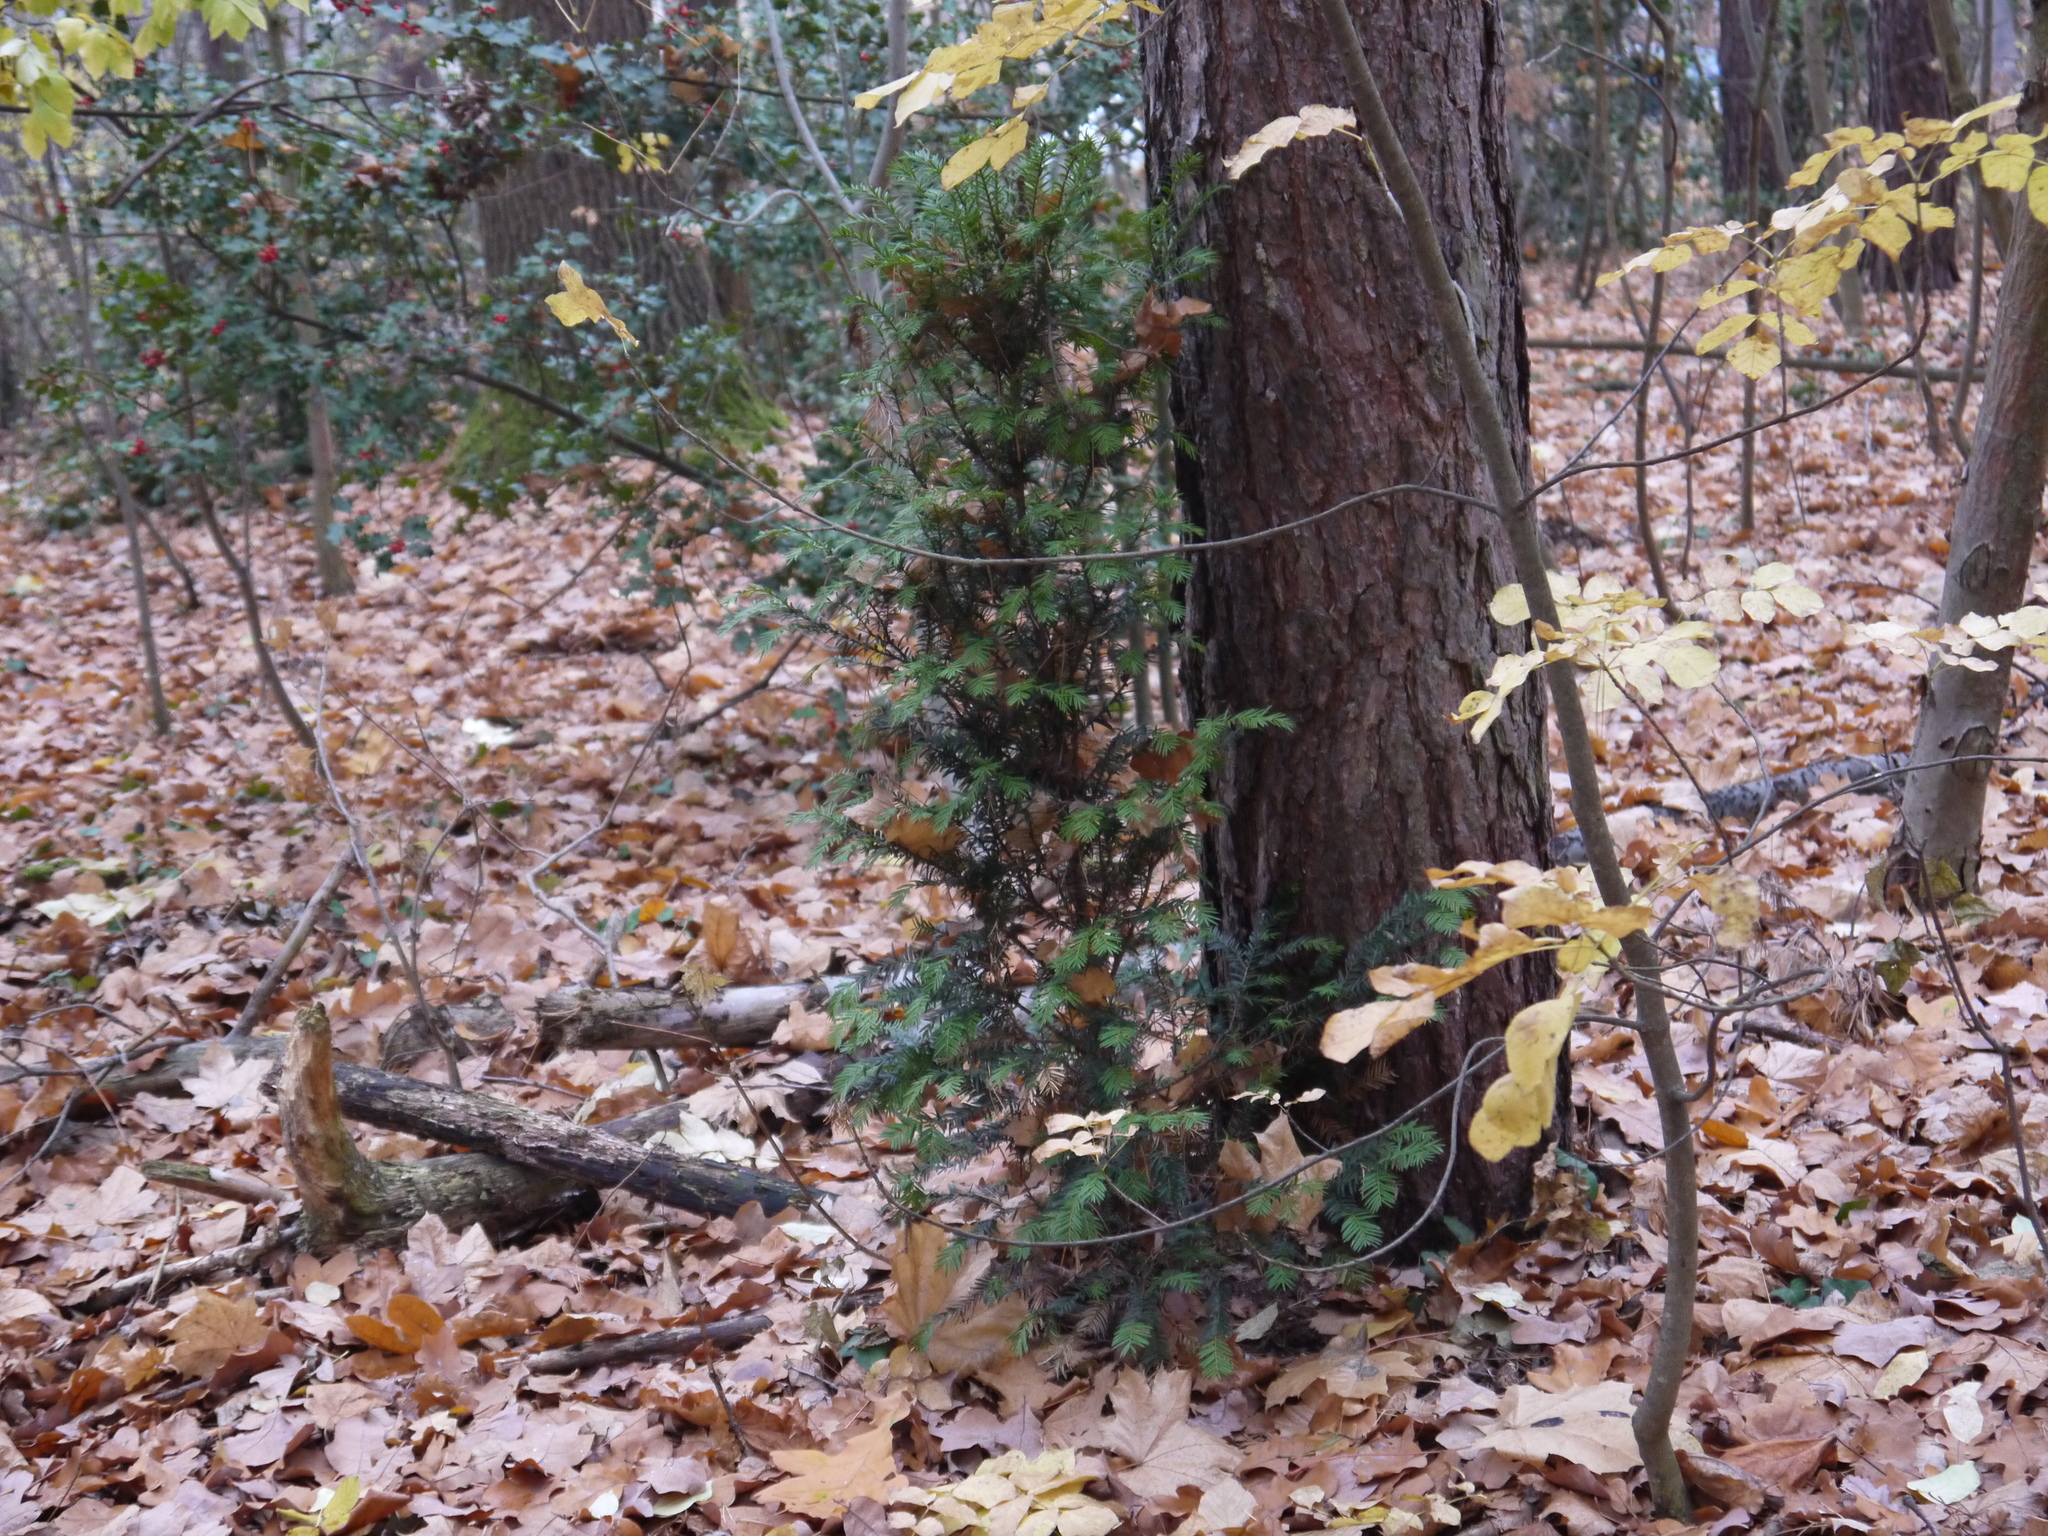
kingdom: Plantae
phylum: Tracheophyta
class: Pinopsida
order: Pinales
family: Taxaceae
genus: Taxus
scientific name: Taxus baccata
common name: Yew
